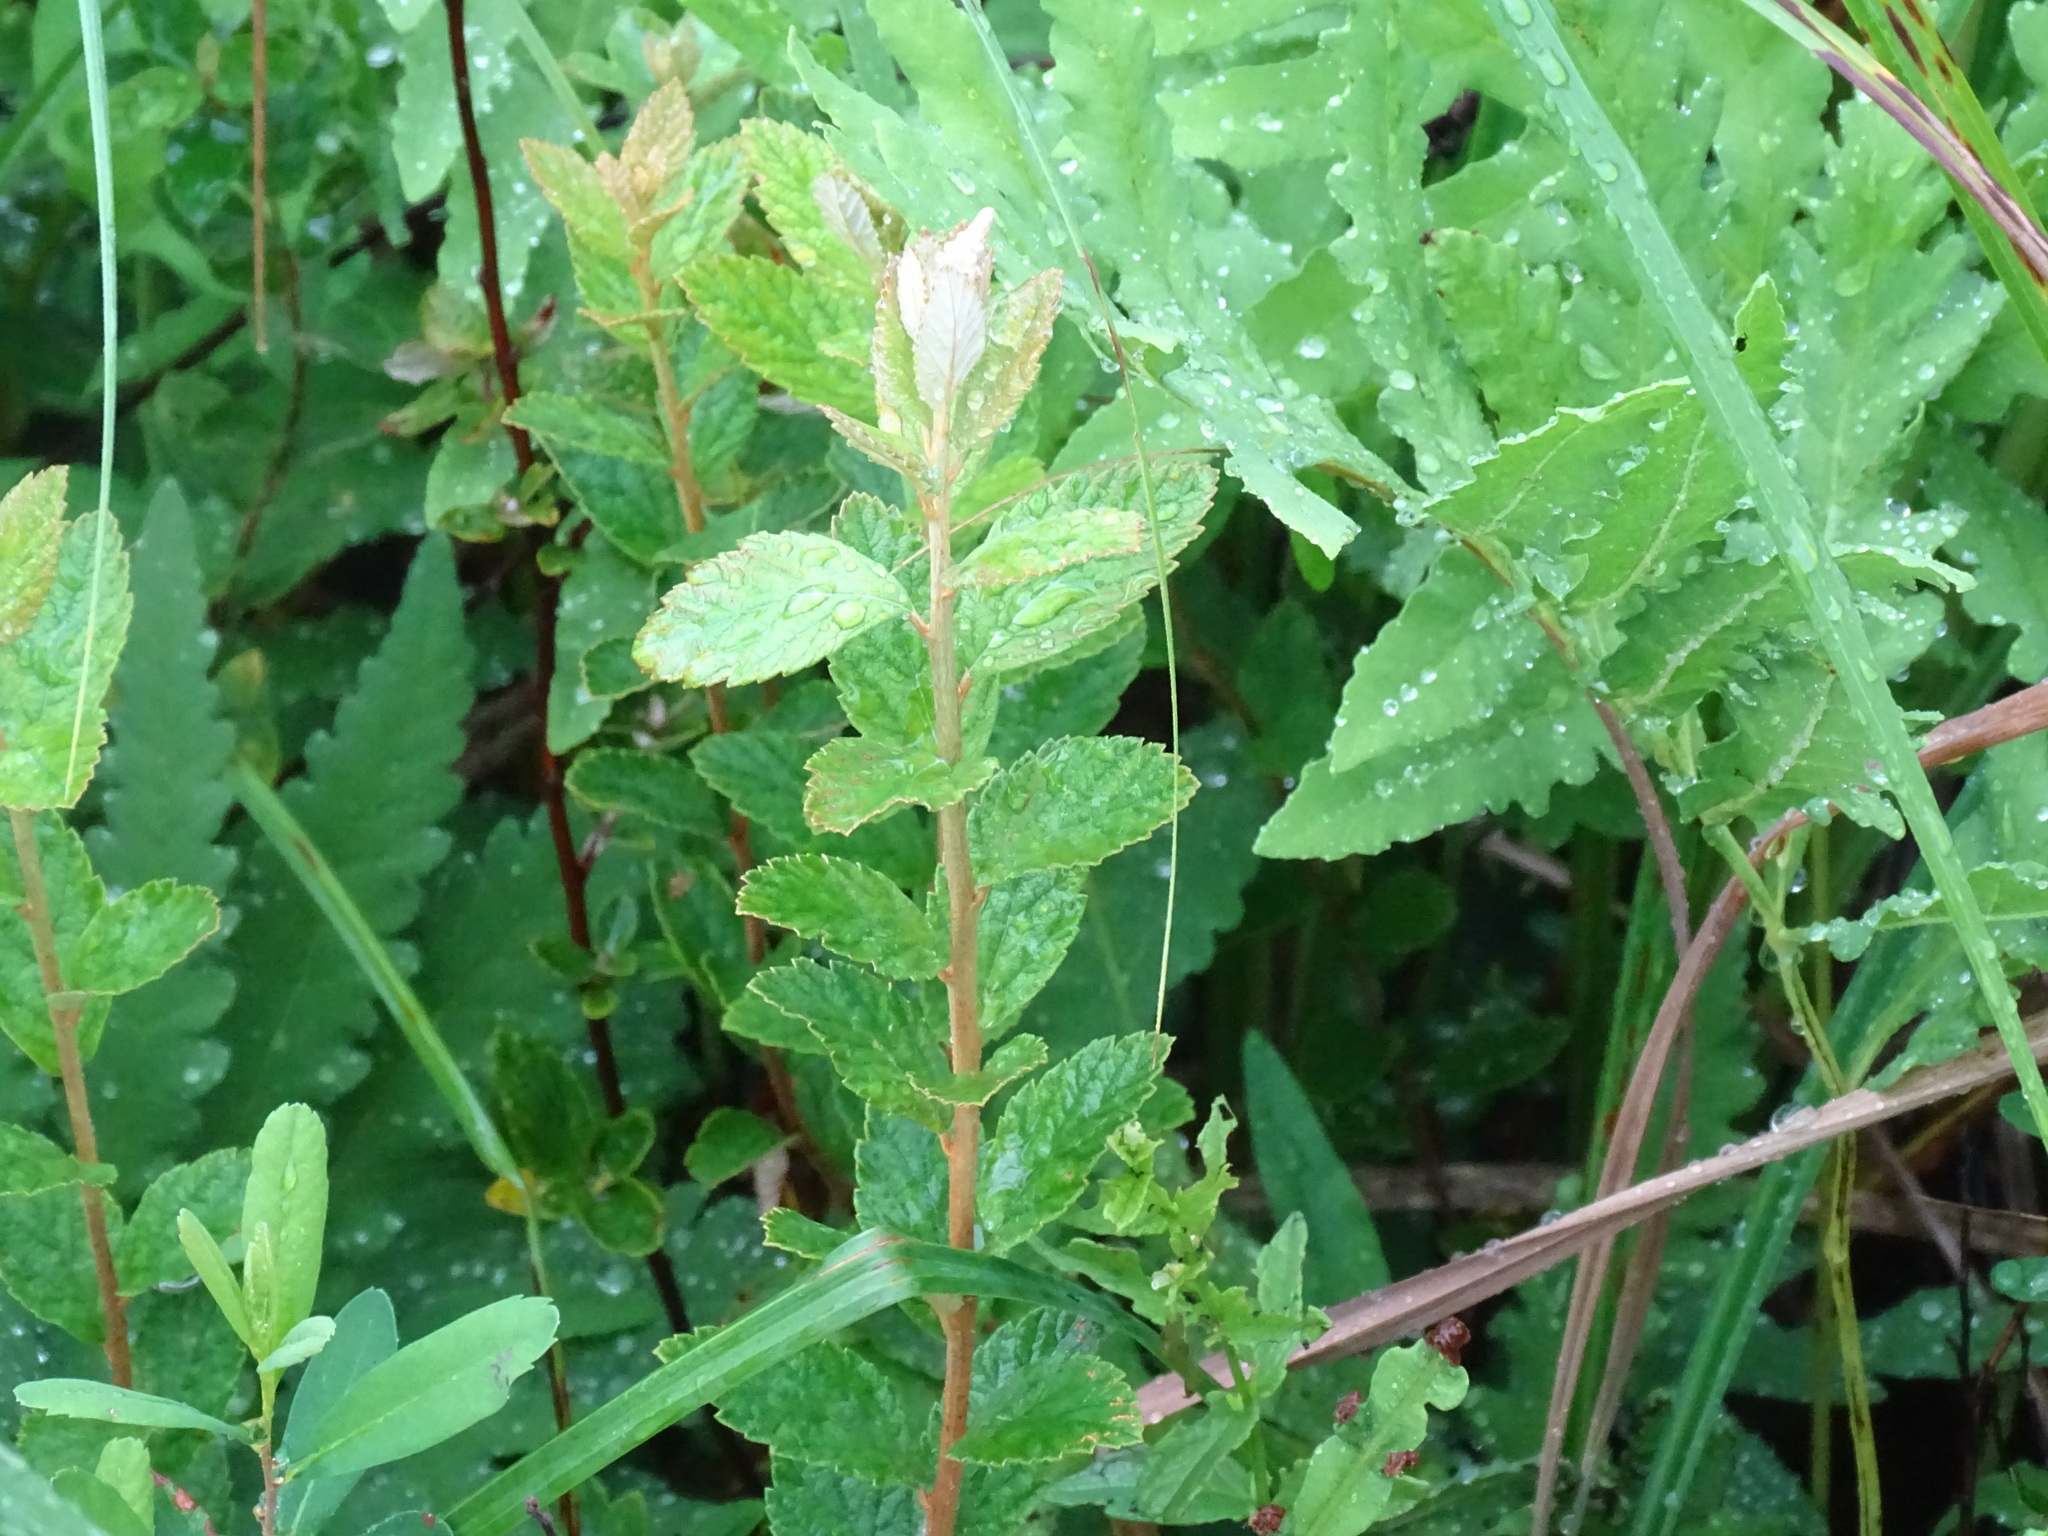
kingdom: Plantae
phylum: Tracheophyta
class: Magnoliopsida
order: Rosales
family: Rosaceae
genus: Spiraea
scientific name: Spiraea tomentosa
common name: Hardhack
